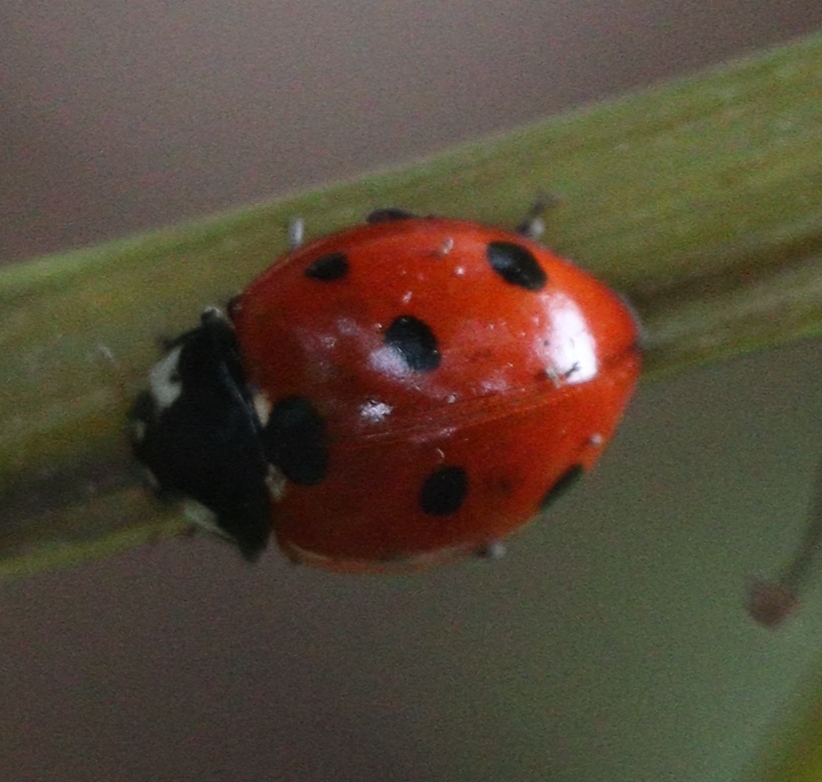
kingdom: Animalia
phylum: Arthropoda
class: Insecta
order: Coleoptera
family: Coccinellidae
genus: Coccinella
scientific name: Coccinella septempunctata
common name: Sevenspotted lady beetle
